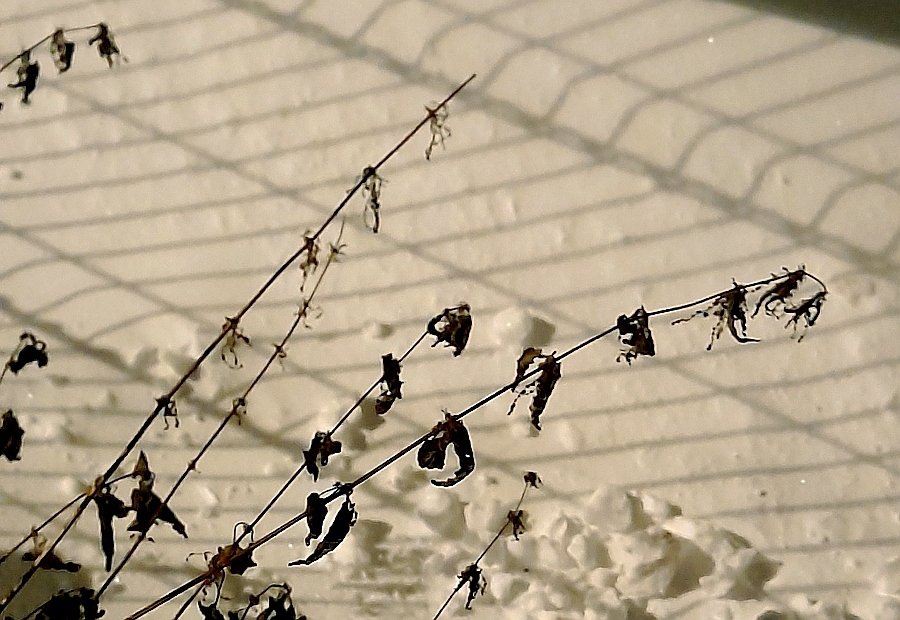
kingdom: Plantae
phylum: Tracheophyta
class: Magnoliopsida
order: Rosales
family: Urticaceae
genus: Urtica
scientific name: Urtica dioica
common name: Common nettle
